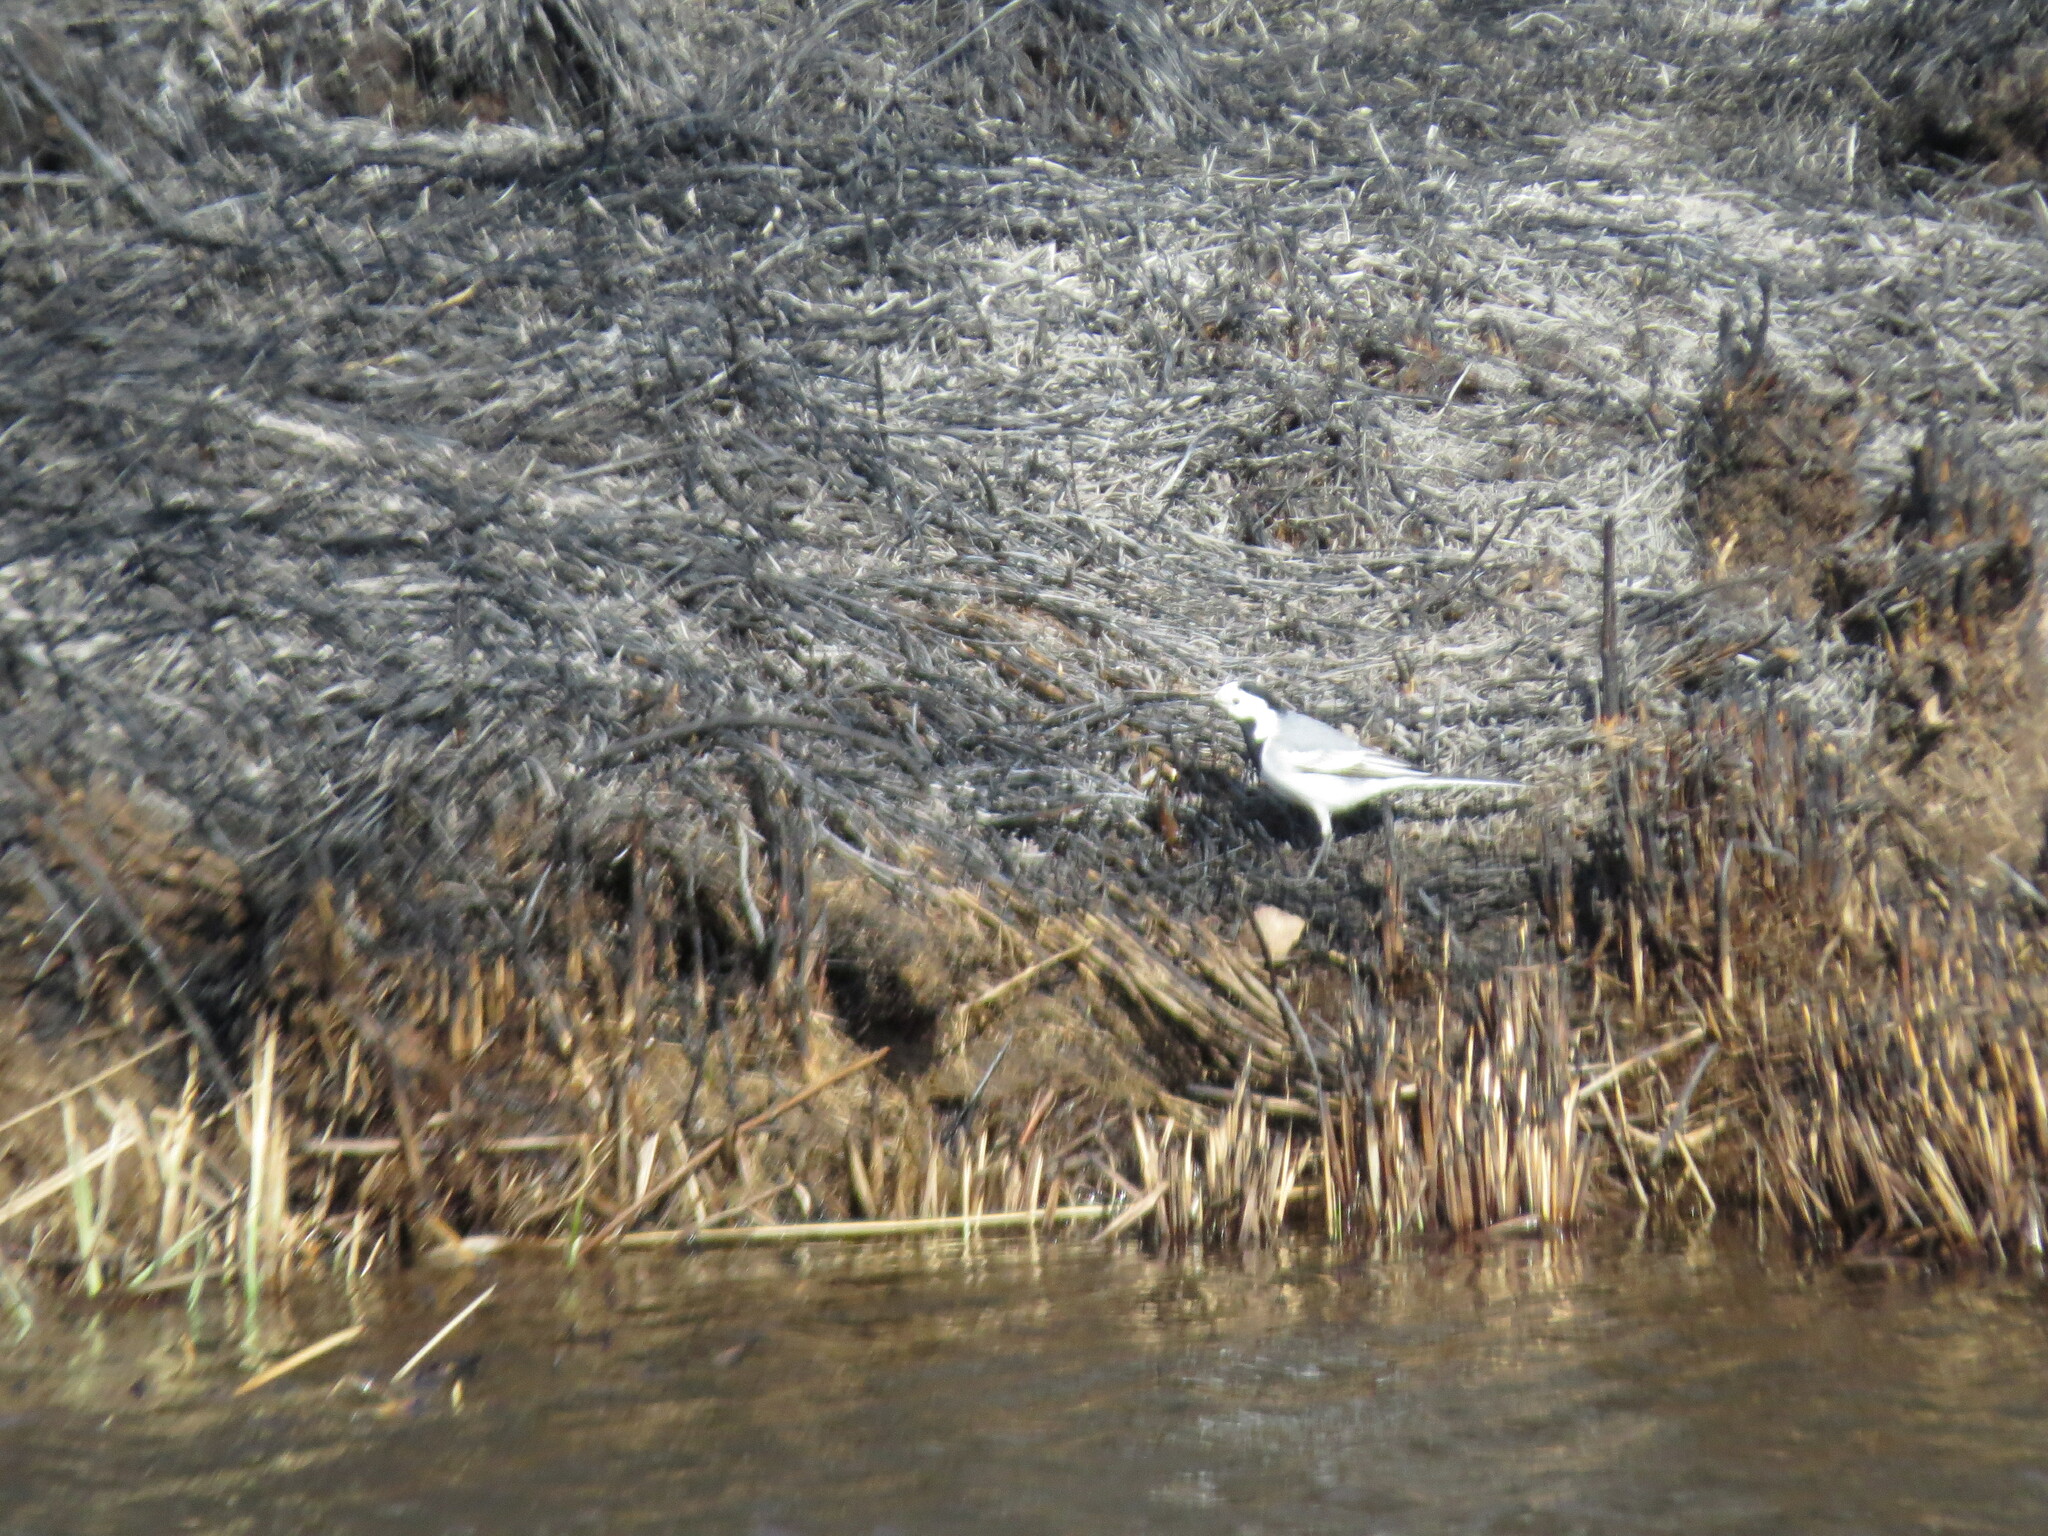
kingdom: Animalia
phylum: Chordata
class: Aves
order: Passeriformes
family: Motacillidae
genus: Motacilla
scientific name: Motacilla alba
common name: White wagtail
